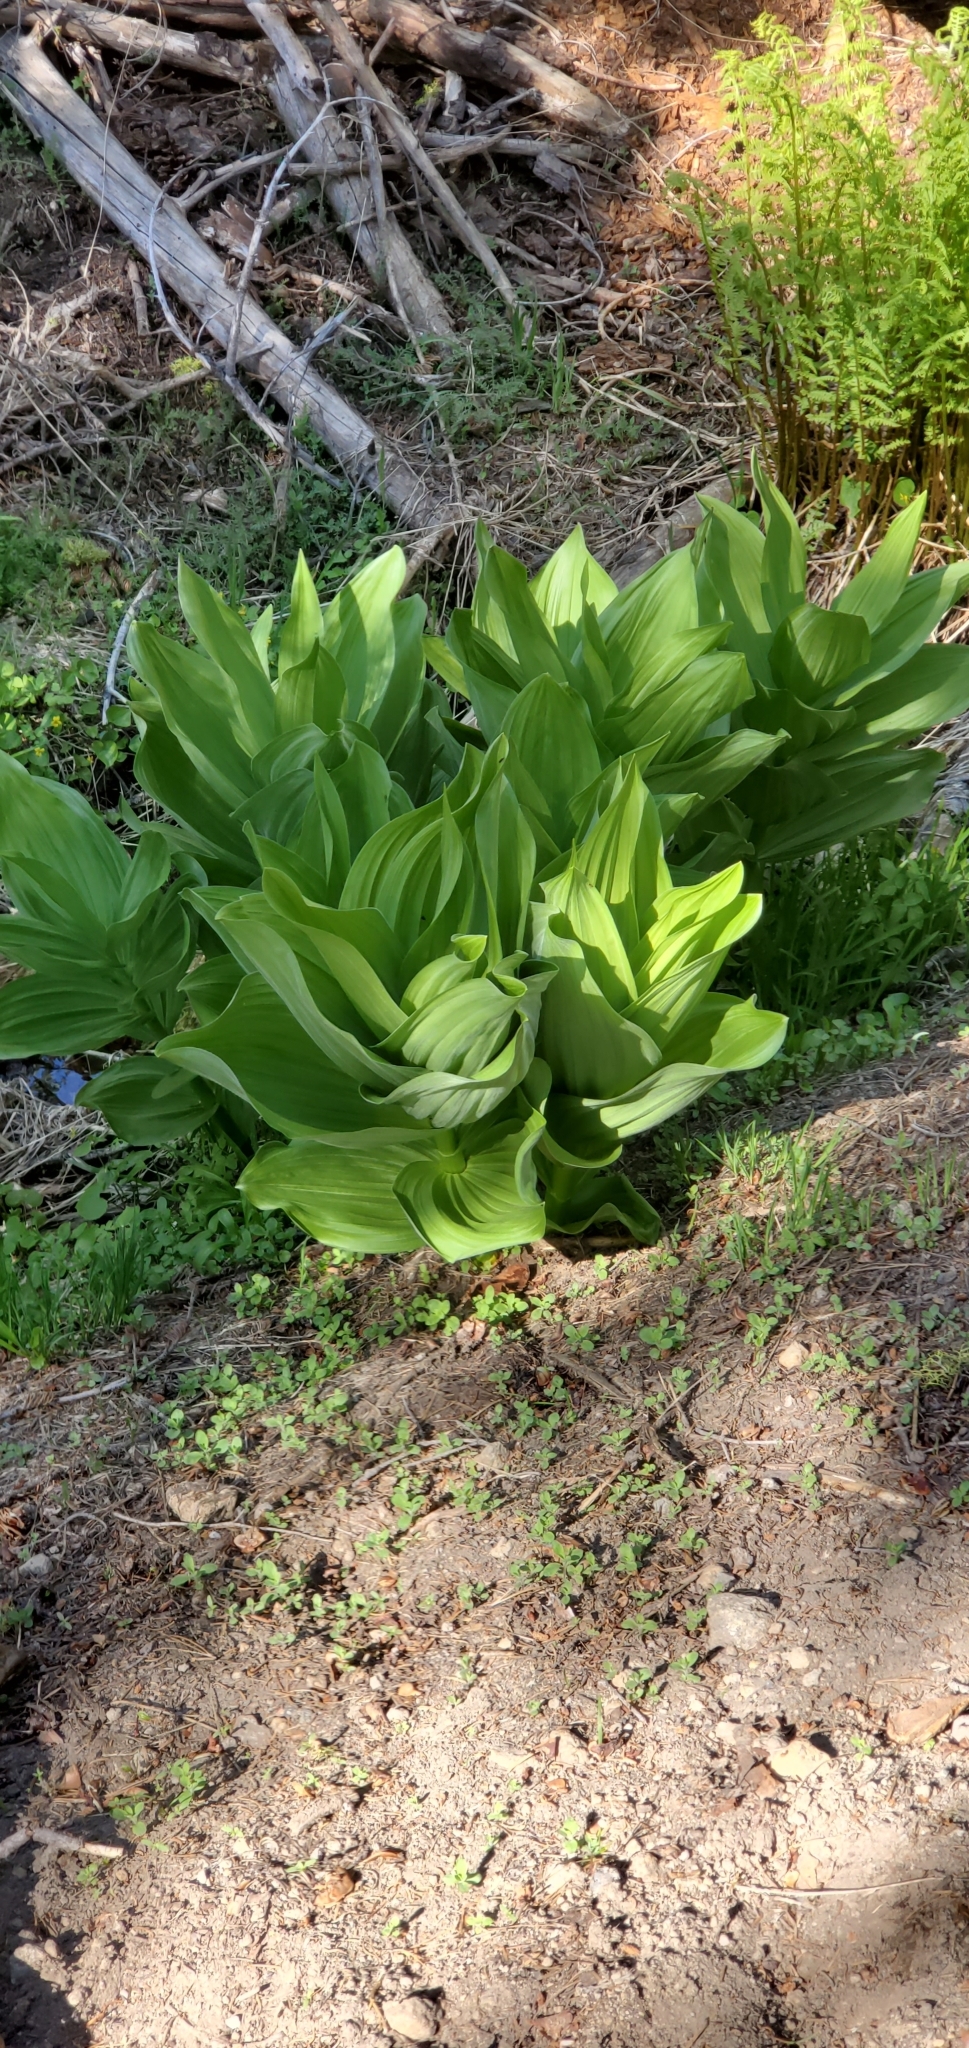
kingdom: Plantae
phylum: Tracheophyta
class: Liliopsida
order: Liliales
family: Melanthiaceae
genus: Veratrum
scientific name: Veratrum californicum
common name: California veratrum
